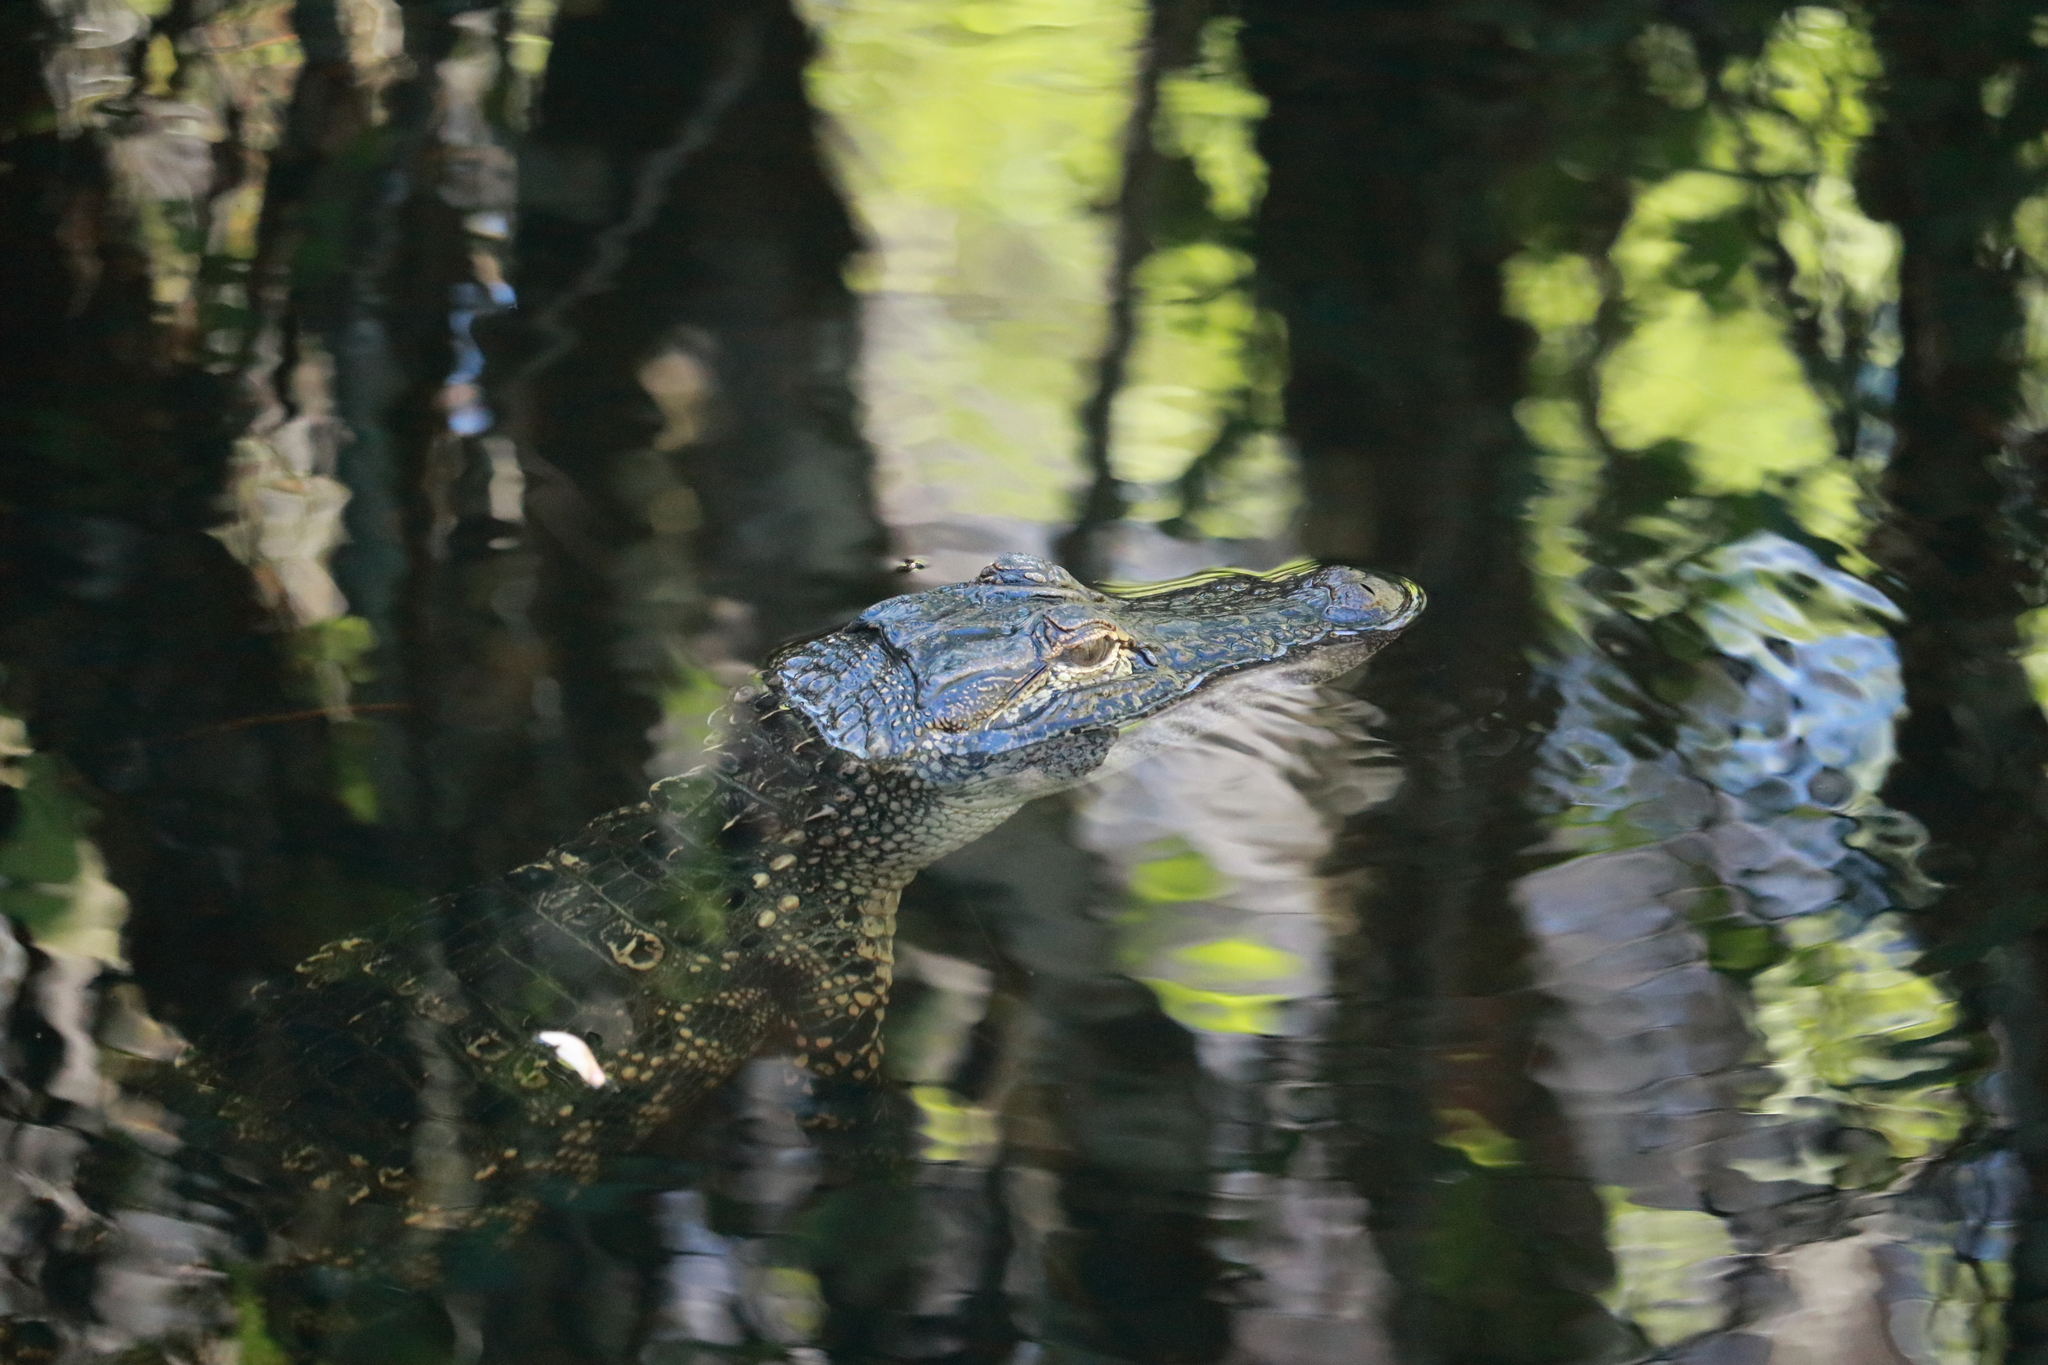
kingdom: Animalia
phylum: Chordata
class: Crocodylia
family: Alligatoridae
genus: Alligator
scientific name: Alligator mississippiensis
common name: American alligator
